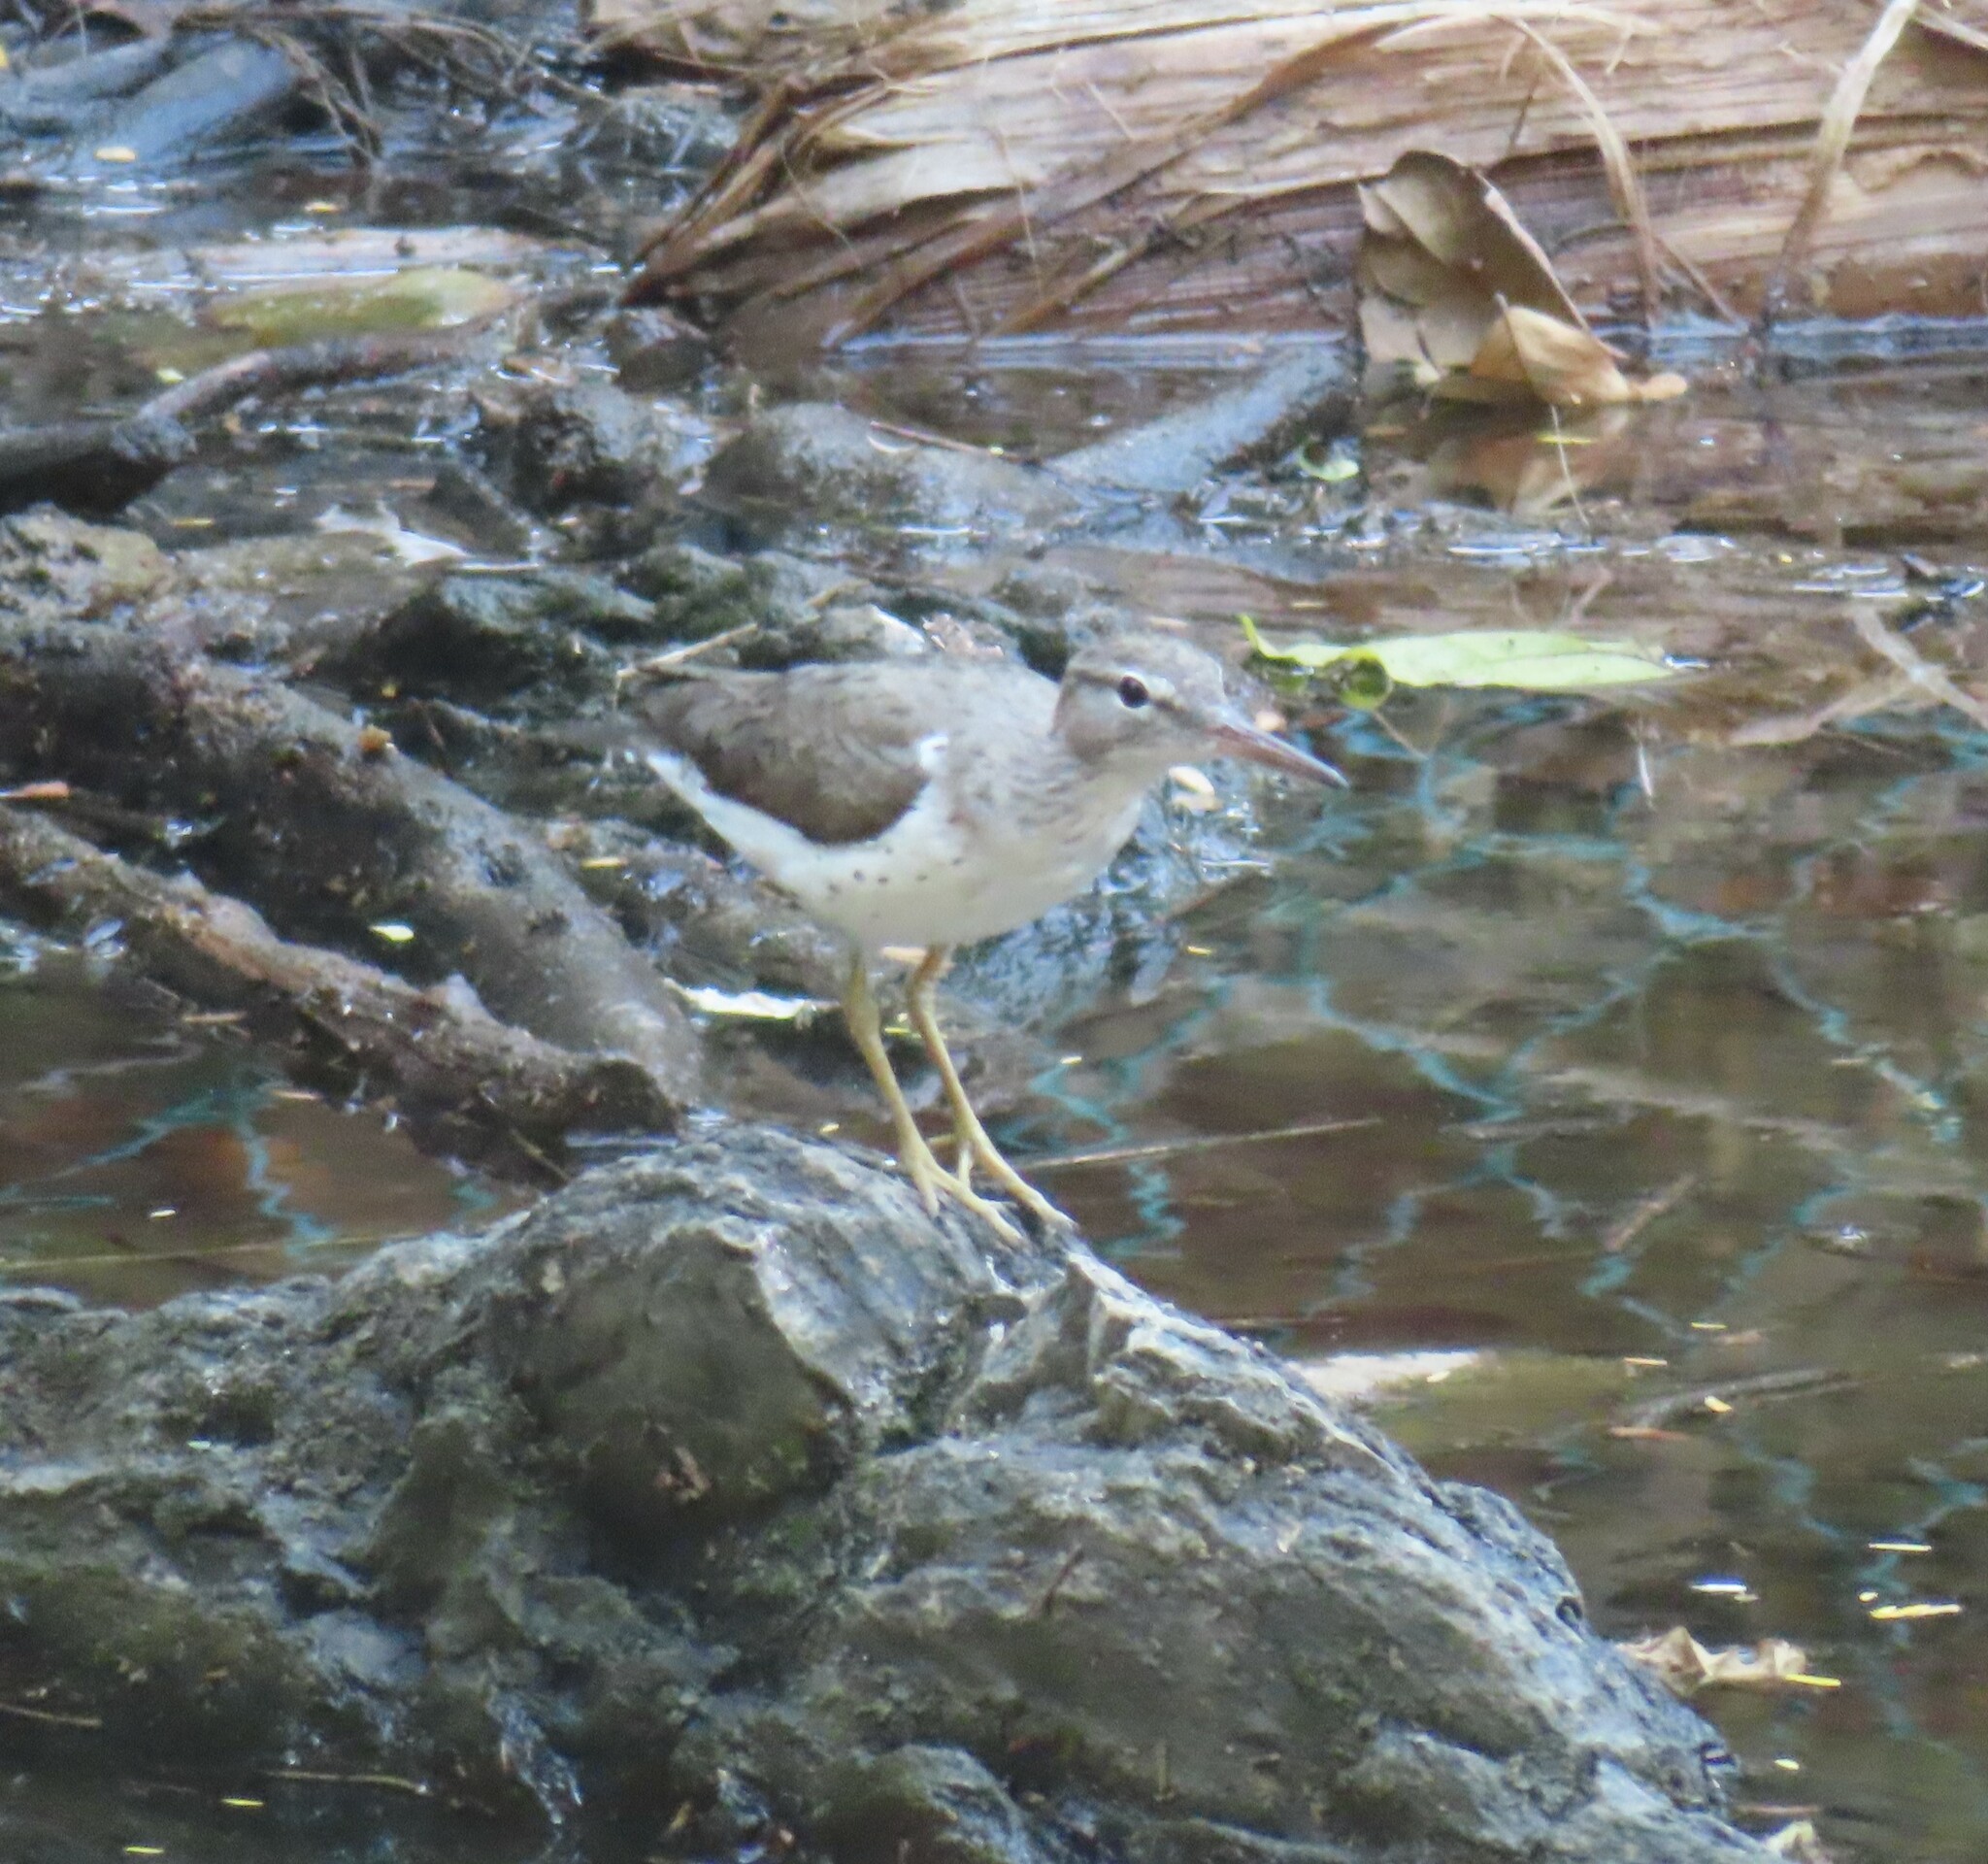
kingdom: Animalia
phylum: Chordata
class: Aves
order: Charadriiformes
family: Scolopacidae
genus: Actitis
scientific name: Actitis macularius
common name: Spotted sandpiper
